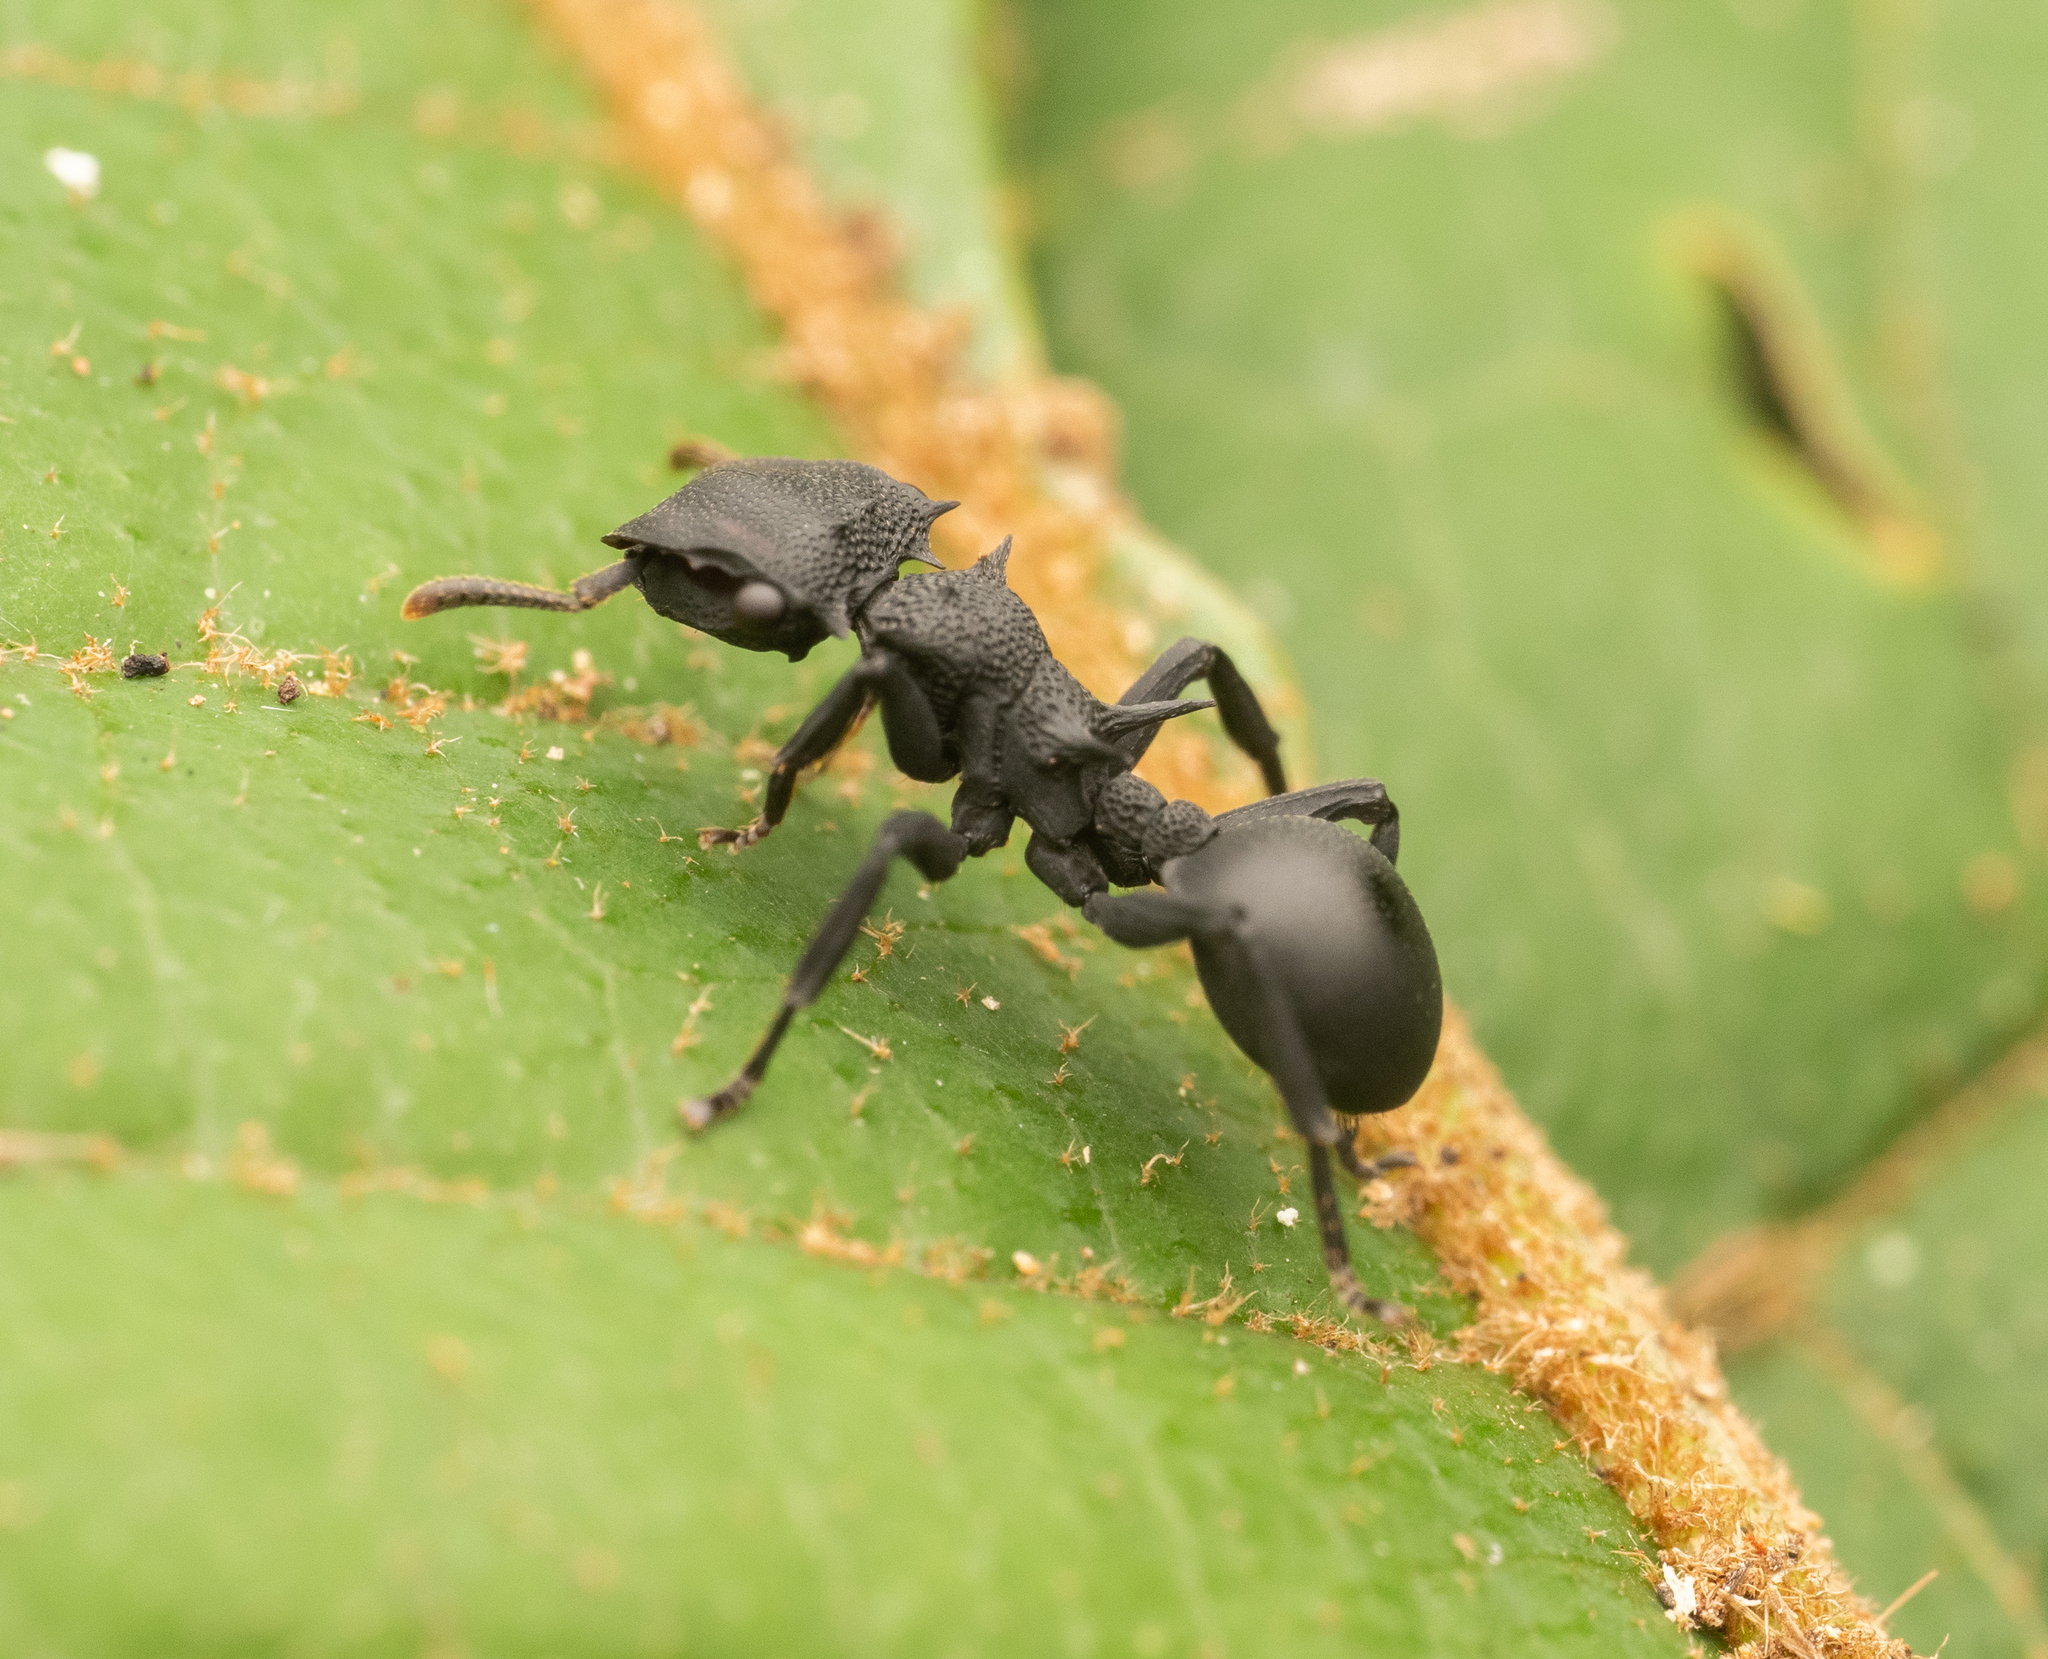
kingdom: Animalia
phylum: Arthropoda
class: Insecta
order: Hymenoptera
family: Formicidae
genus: Cephalotes
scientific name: Cephalotes placidus
